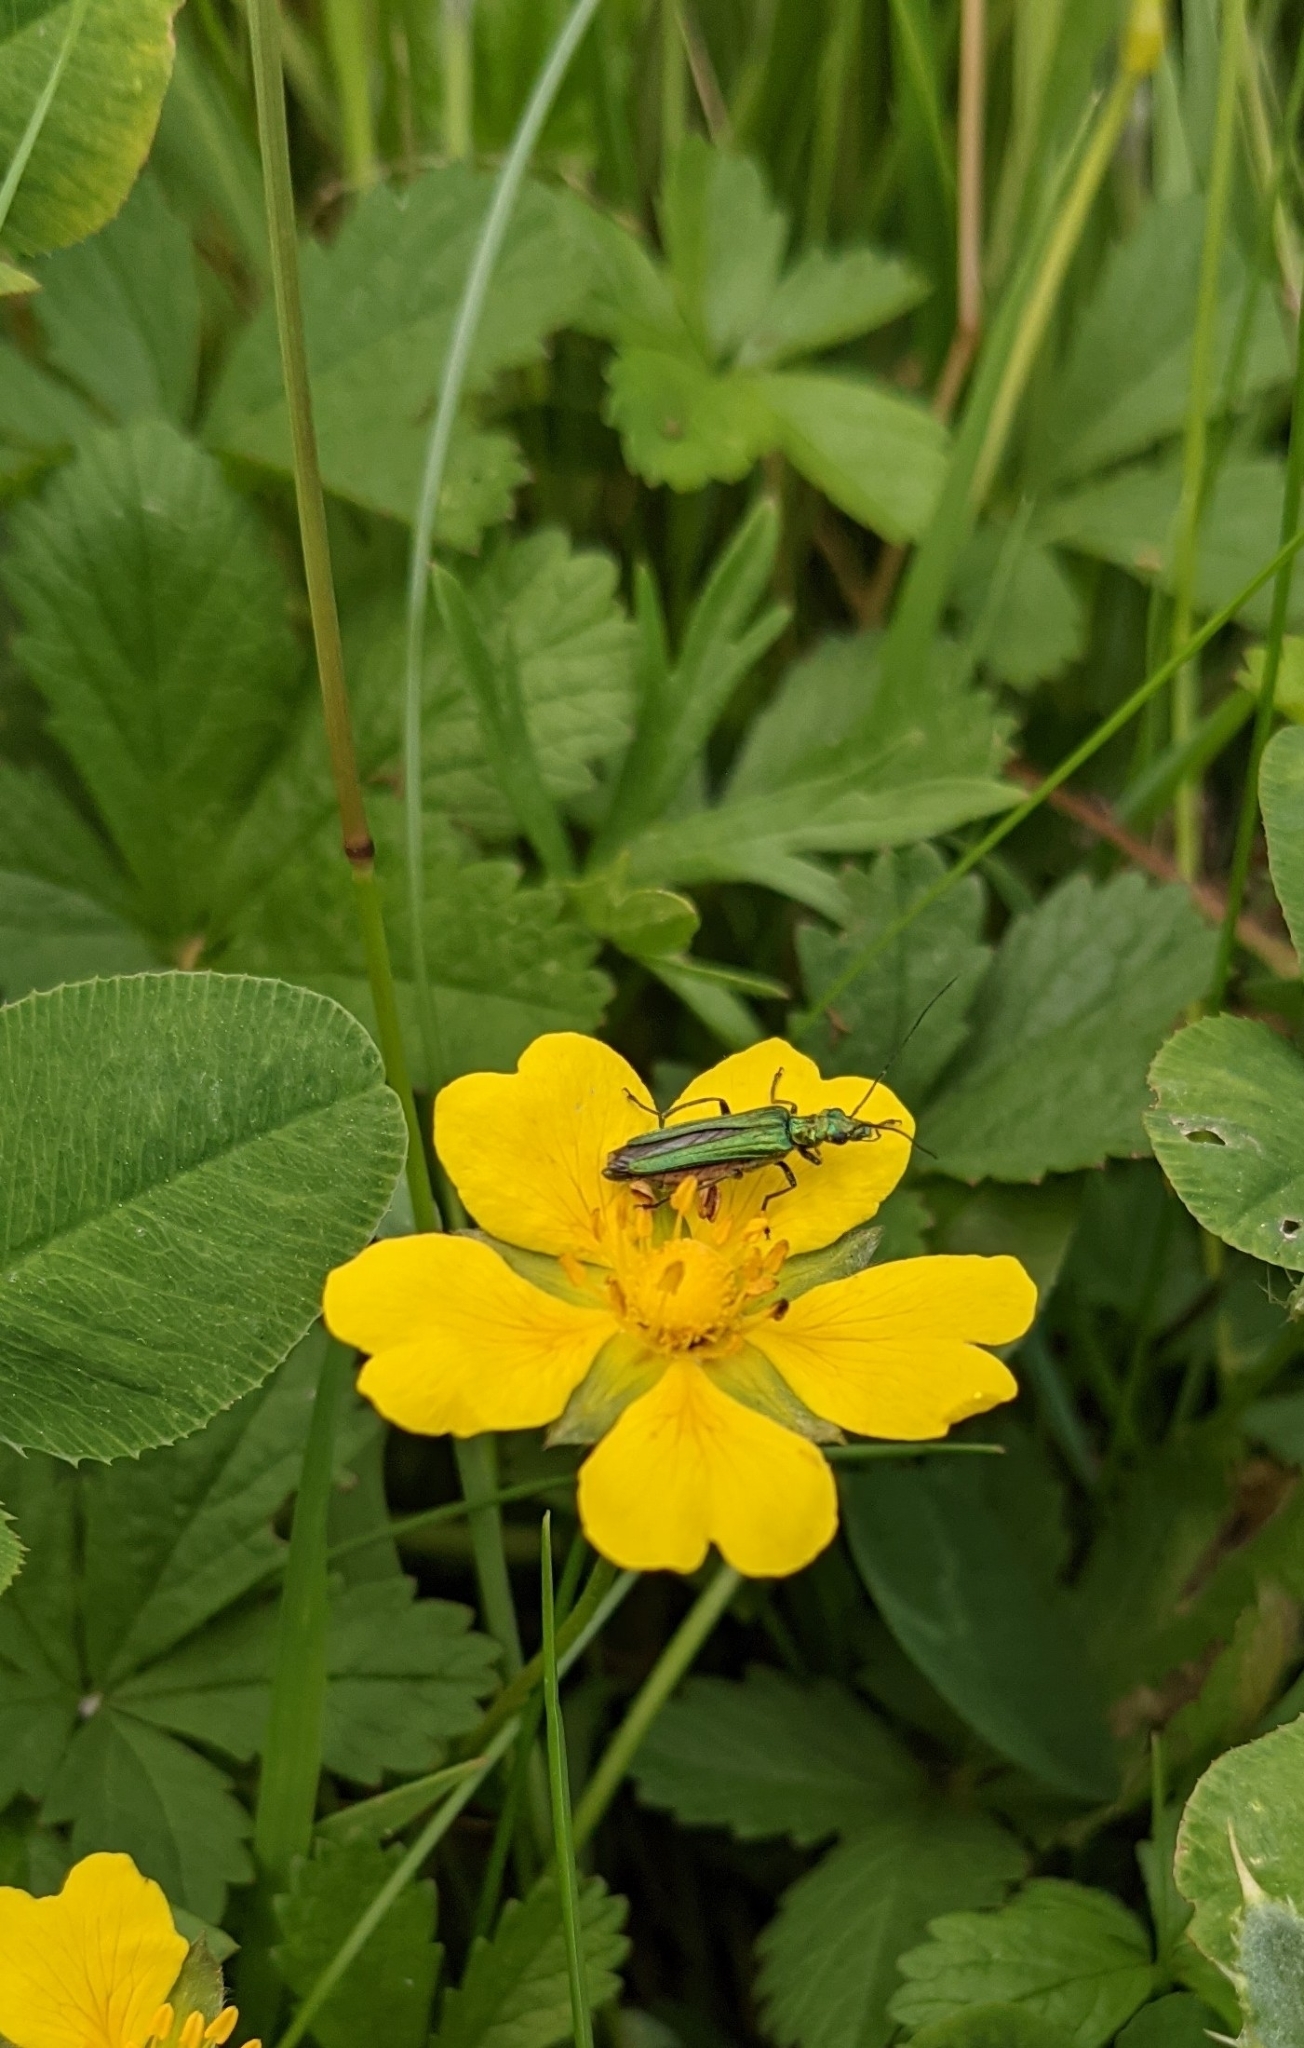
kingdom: Animalia
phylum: Arthropoda
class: Insecta
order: Coleoptera
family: Oedemeridae
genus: Oedemera
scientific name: Oedemera nobilis
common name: Swollen-thighed beetle
